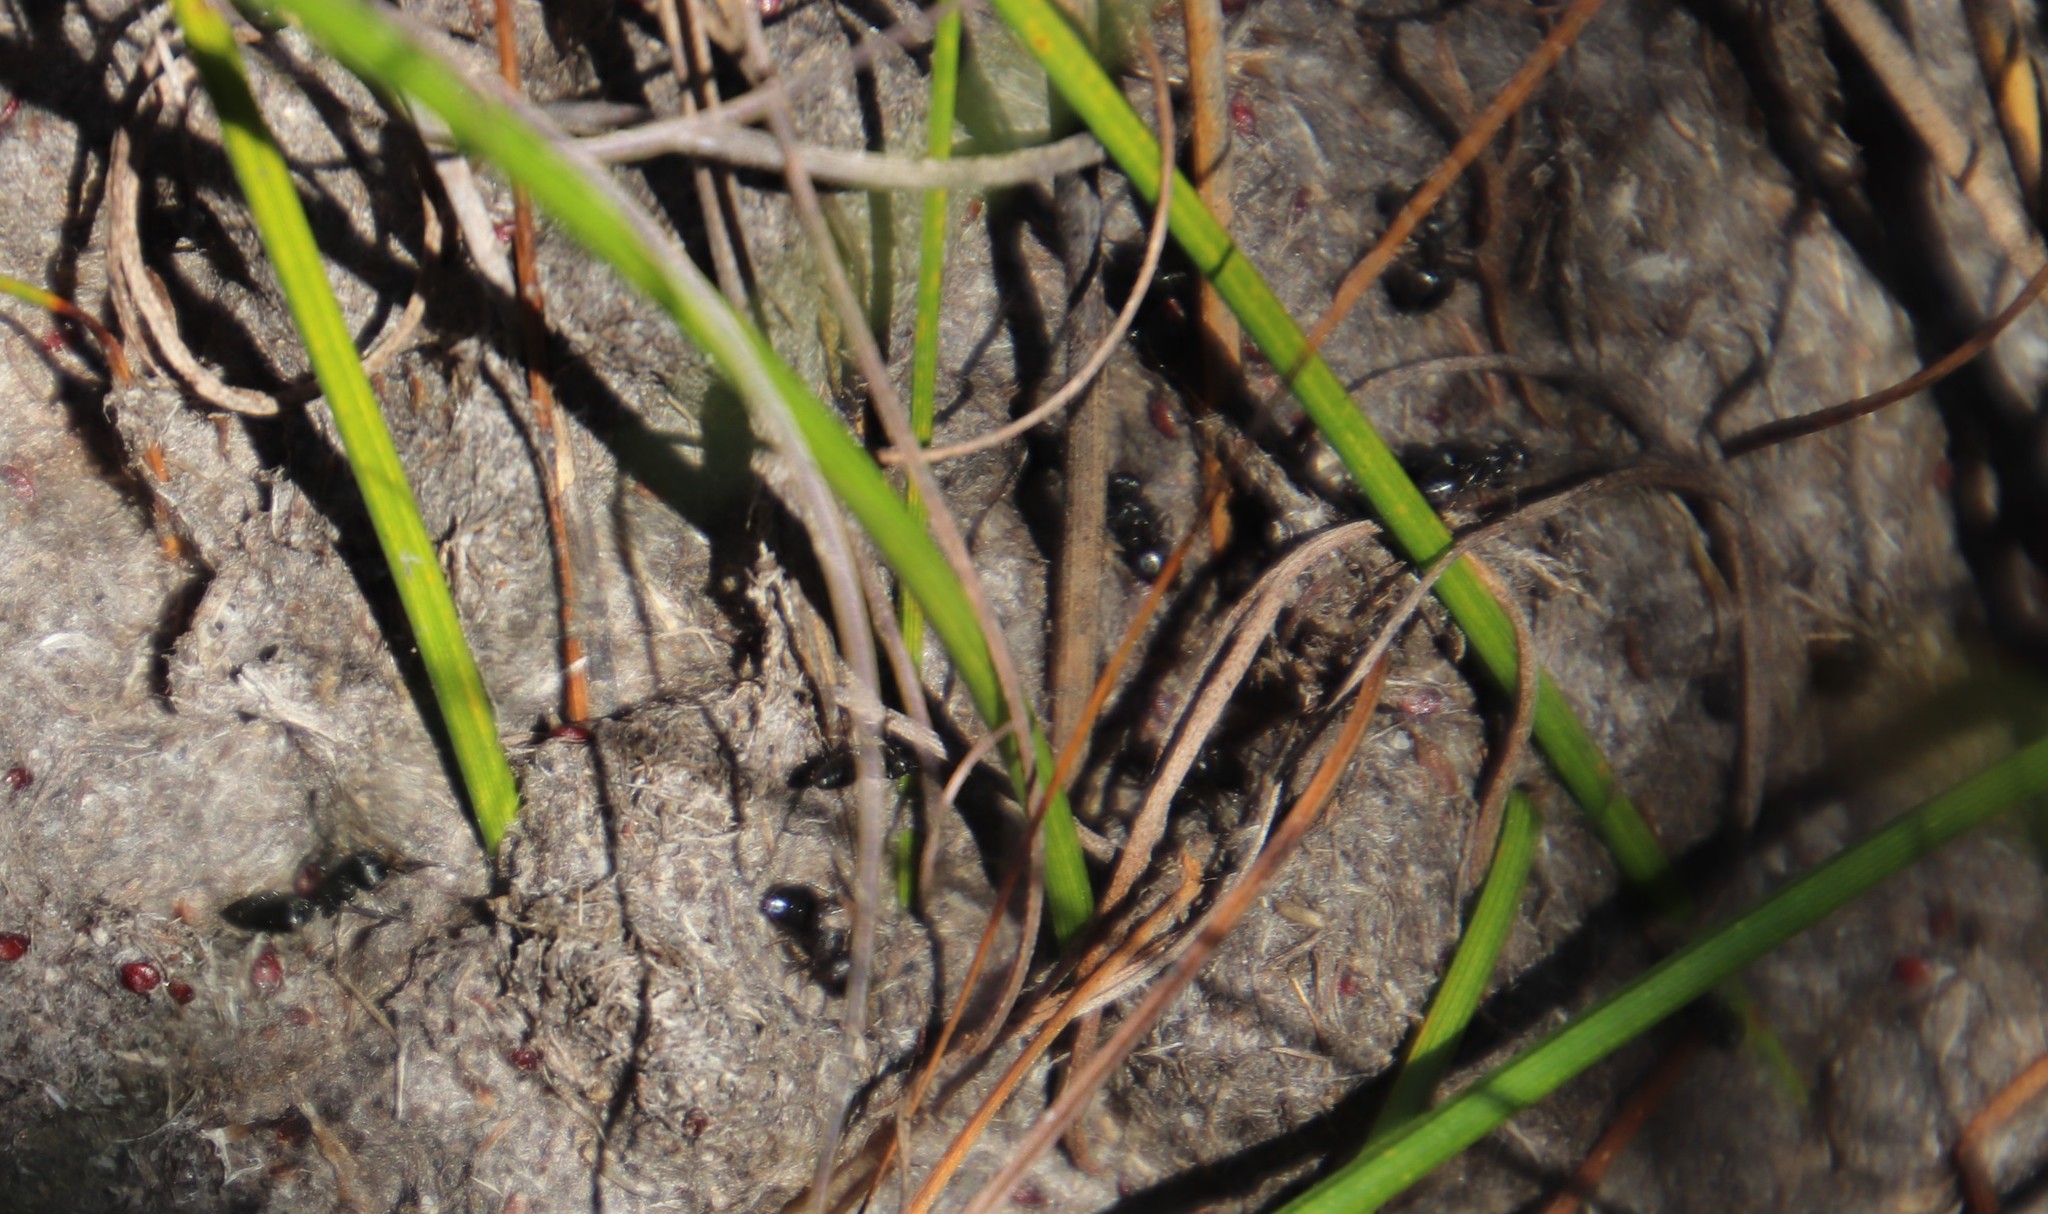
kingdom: Animalia
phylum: Arthropoda
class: Insecta
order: Hymenoptera
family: Formicidae
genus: Crematogaster
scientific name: Crematogaster peringueyi
